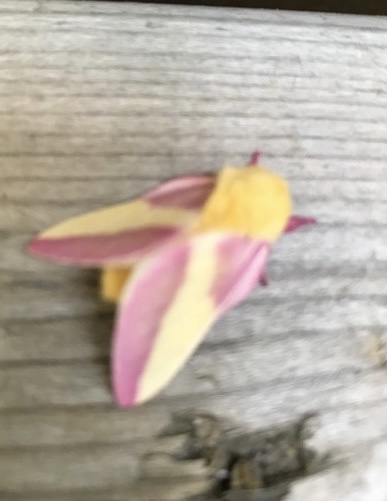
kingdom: Animalia
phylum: Arthropoda
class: Insecta
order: Lepidoptera
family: Saturniidae
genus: Dryocampa
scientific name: Dryocampa rubicunda
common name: Rosy maple moth
